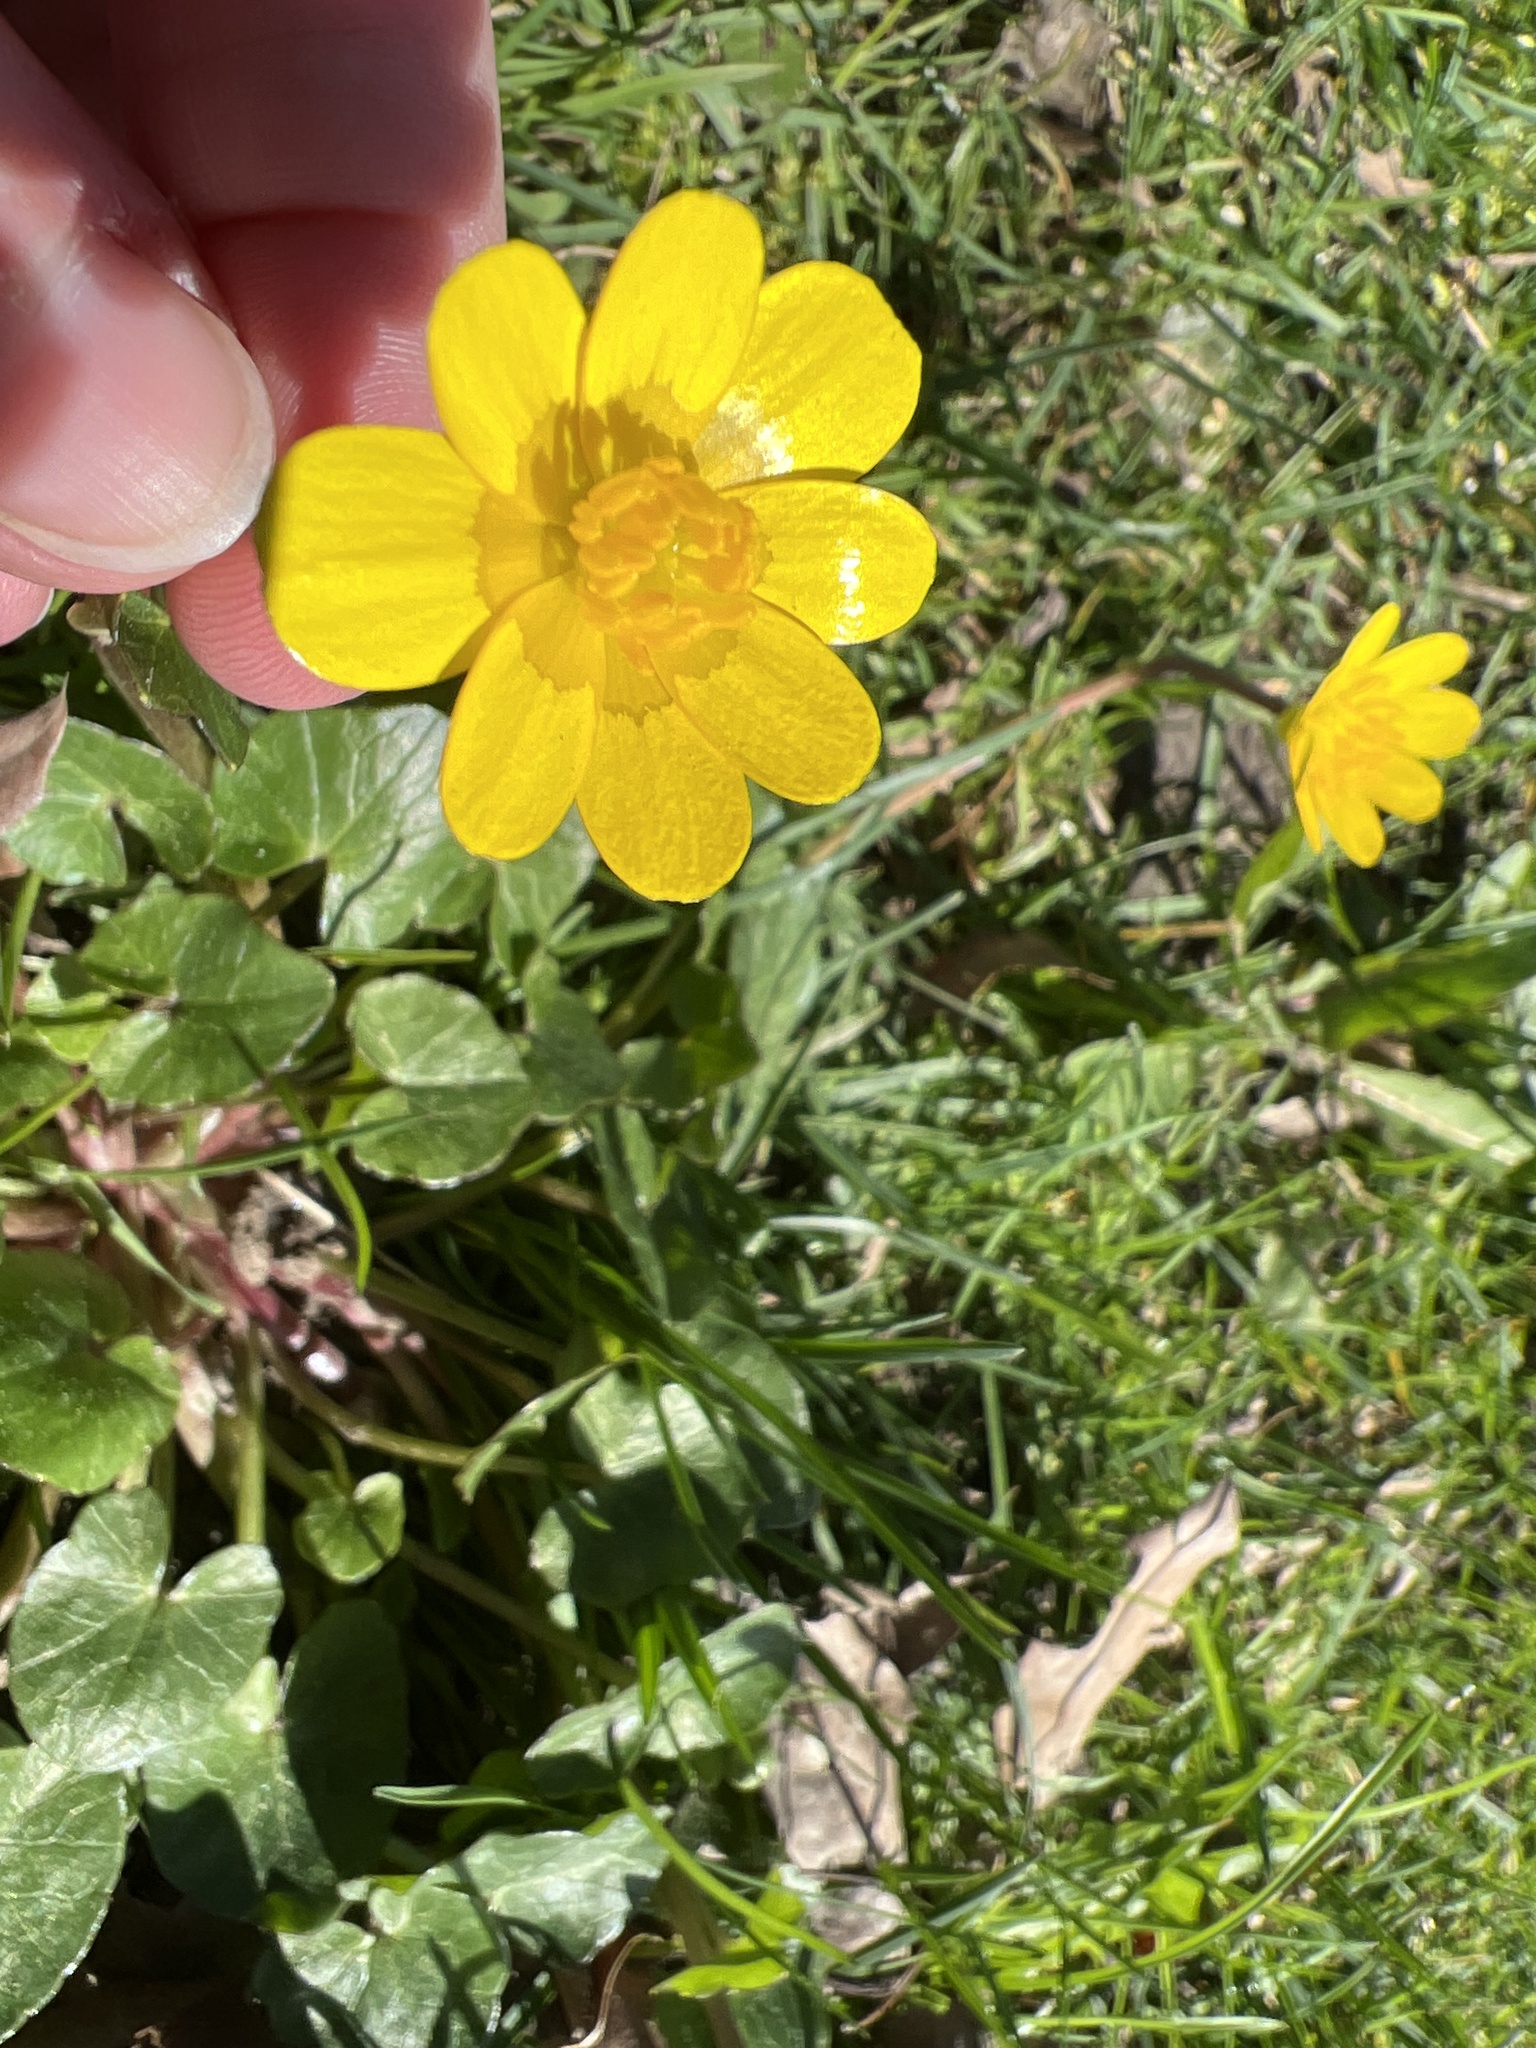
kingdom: Plantae
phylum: Tracheophyta
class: Magnoliopsida
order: Ranunculales
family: Ranunculaceae
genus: Ficaria
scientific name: Ficaria verna
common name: Lesser celandine
